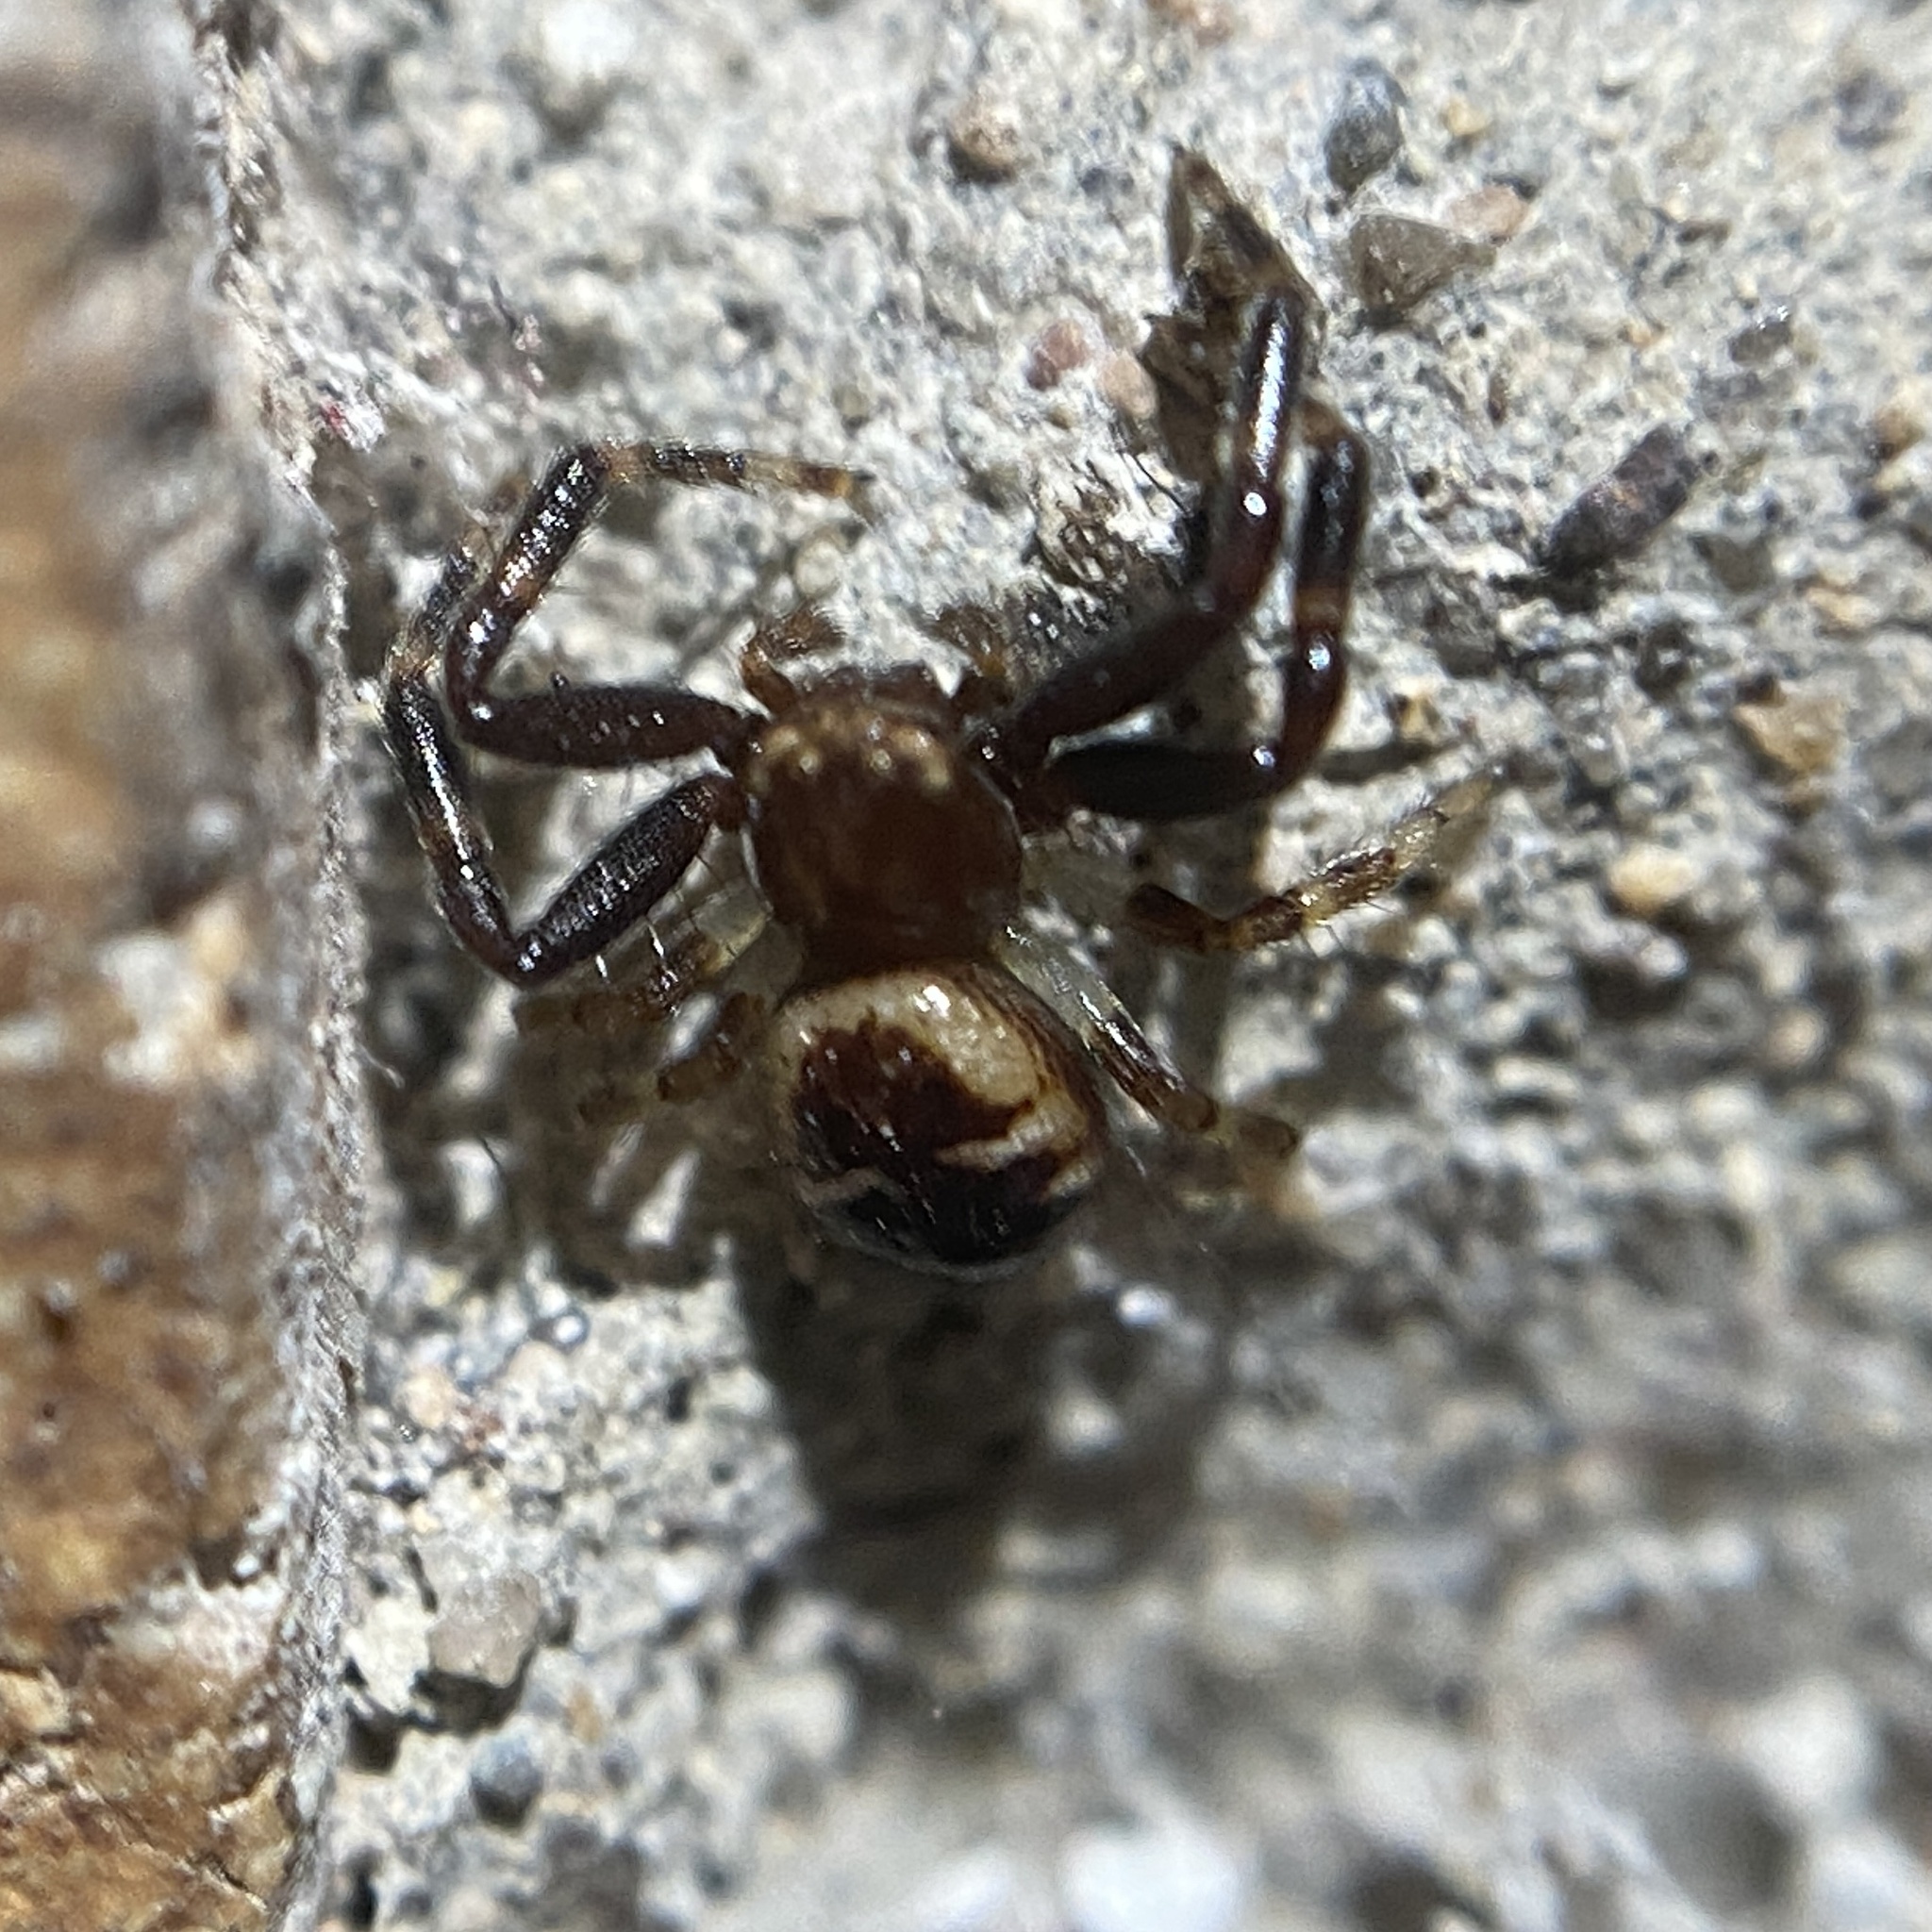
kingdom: Animalia
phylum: Arthropoda
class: Arachnida
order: Araneae
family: Thomisidae
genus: Synema
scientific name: Synema globosum
